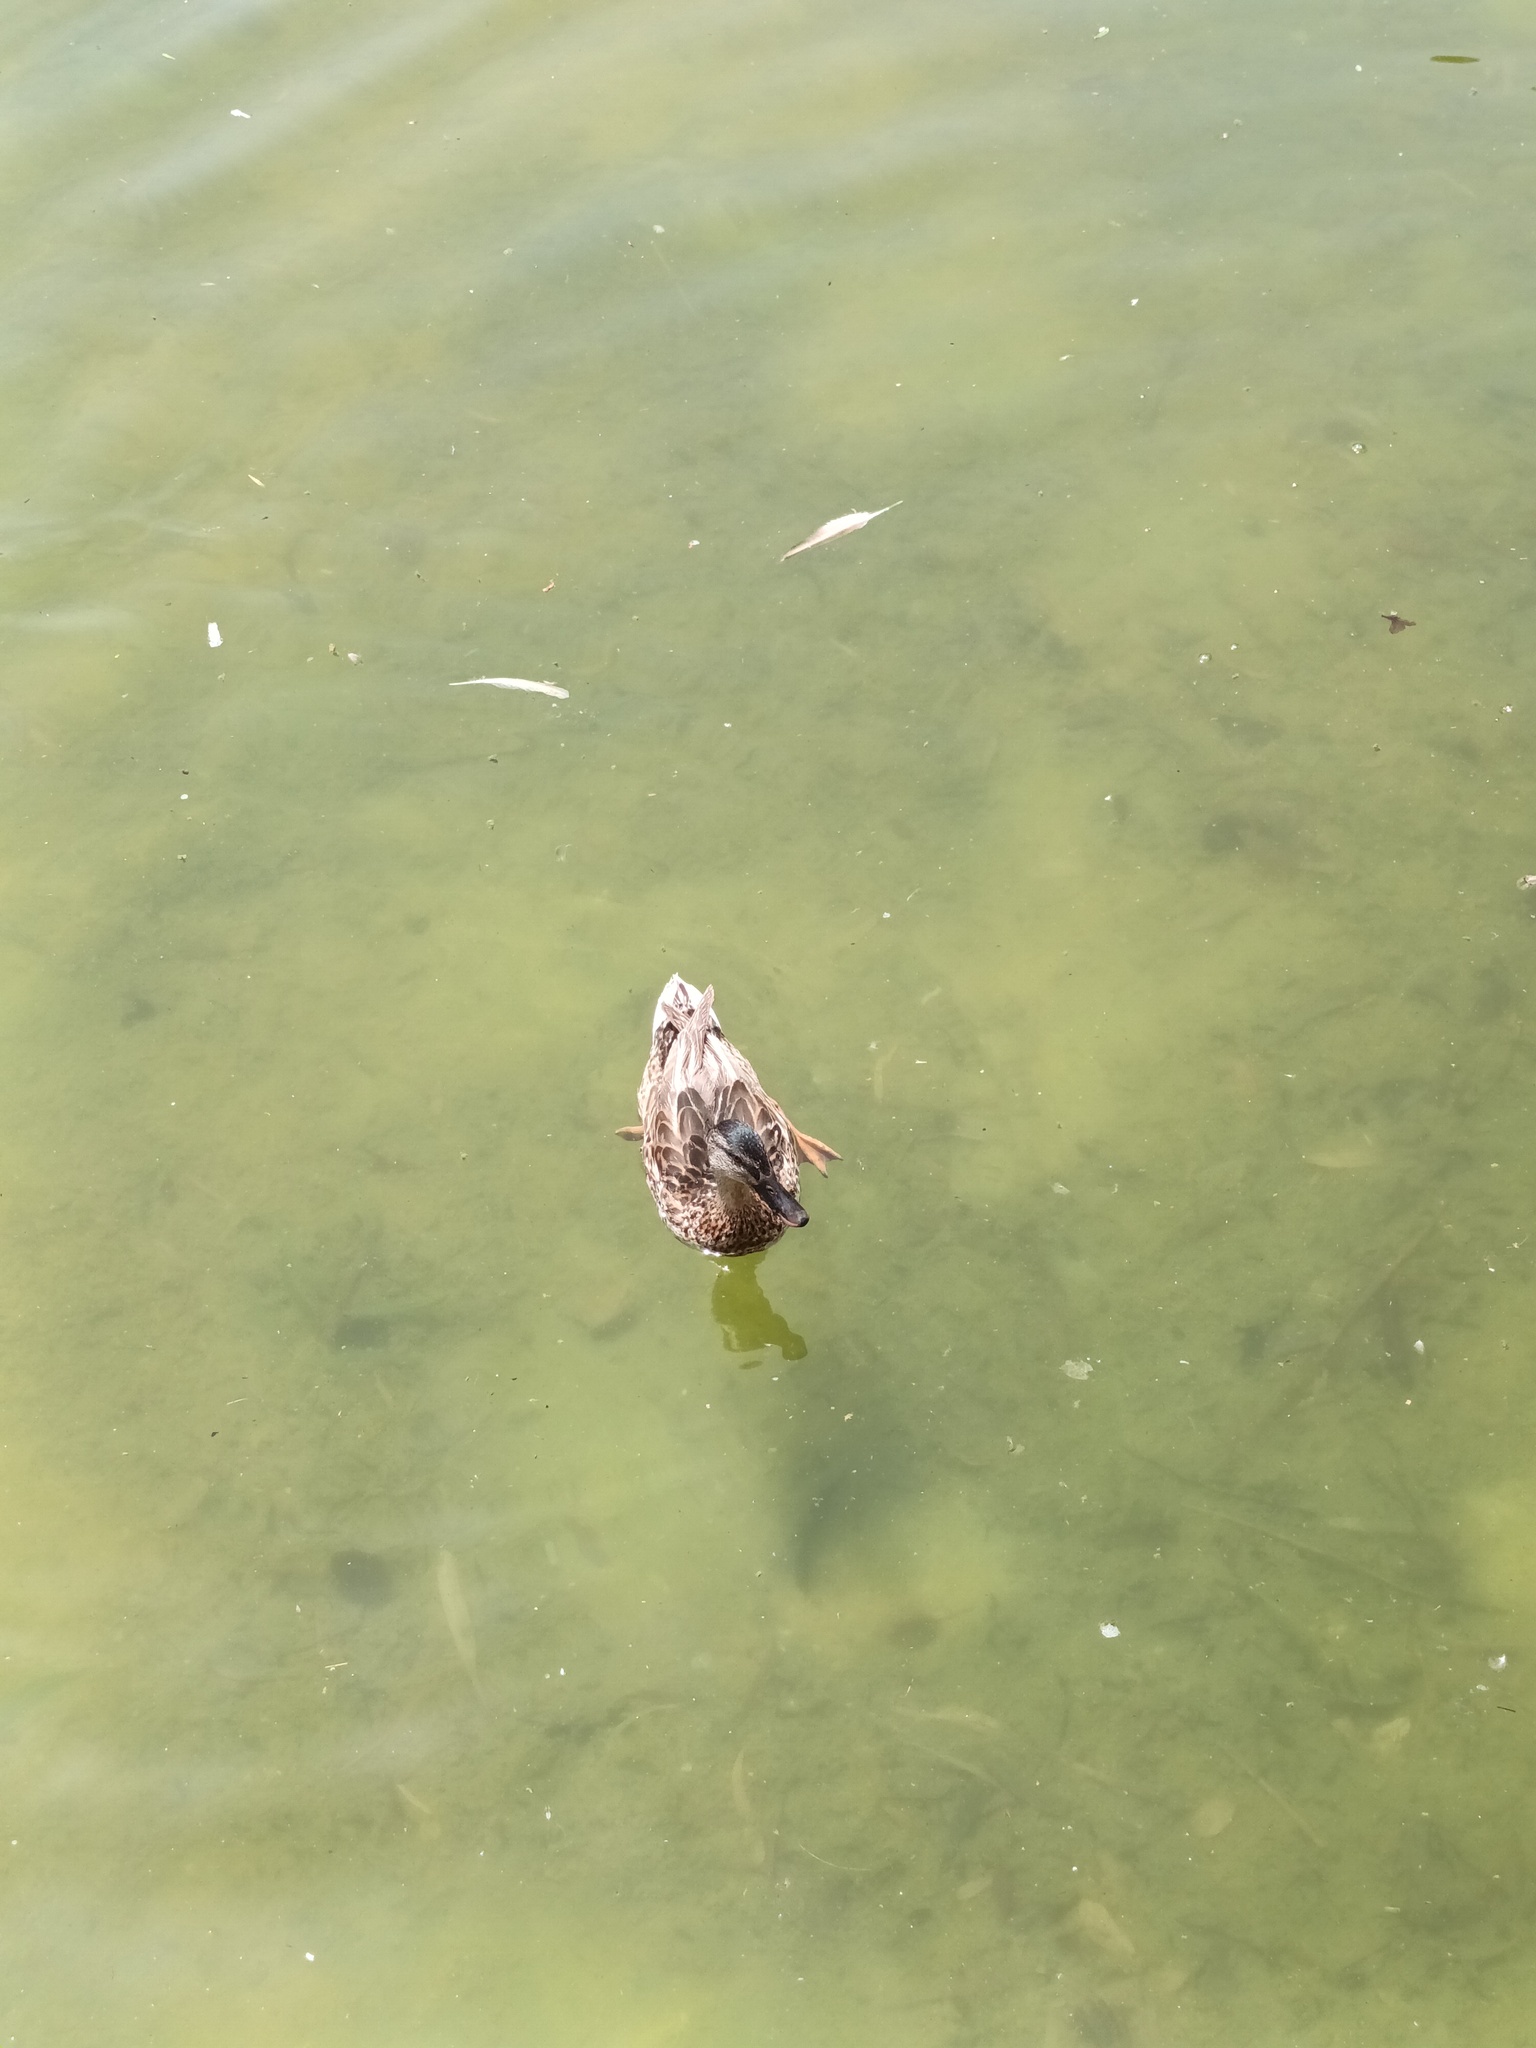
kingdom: Animalia
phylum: Chordata
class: Aves
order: Anseriformes
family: Anatidae
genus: Anas
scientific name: Anas platyrhynchos
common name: Mallard
